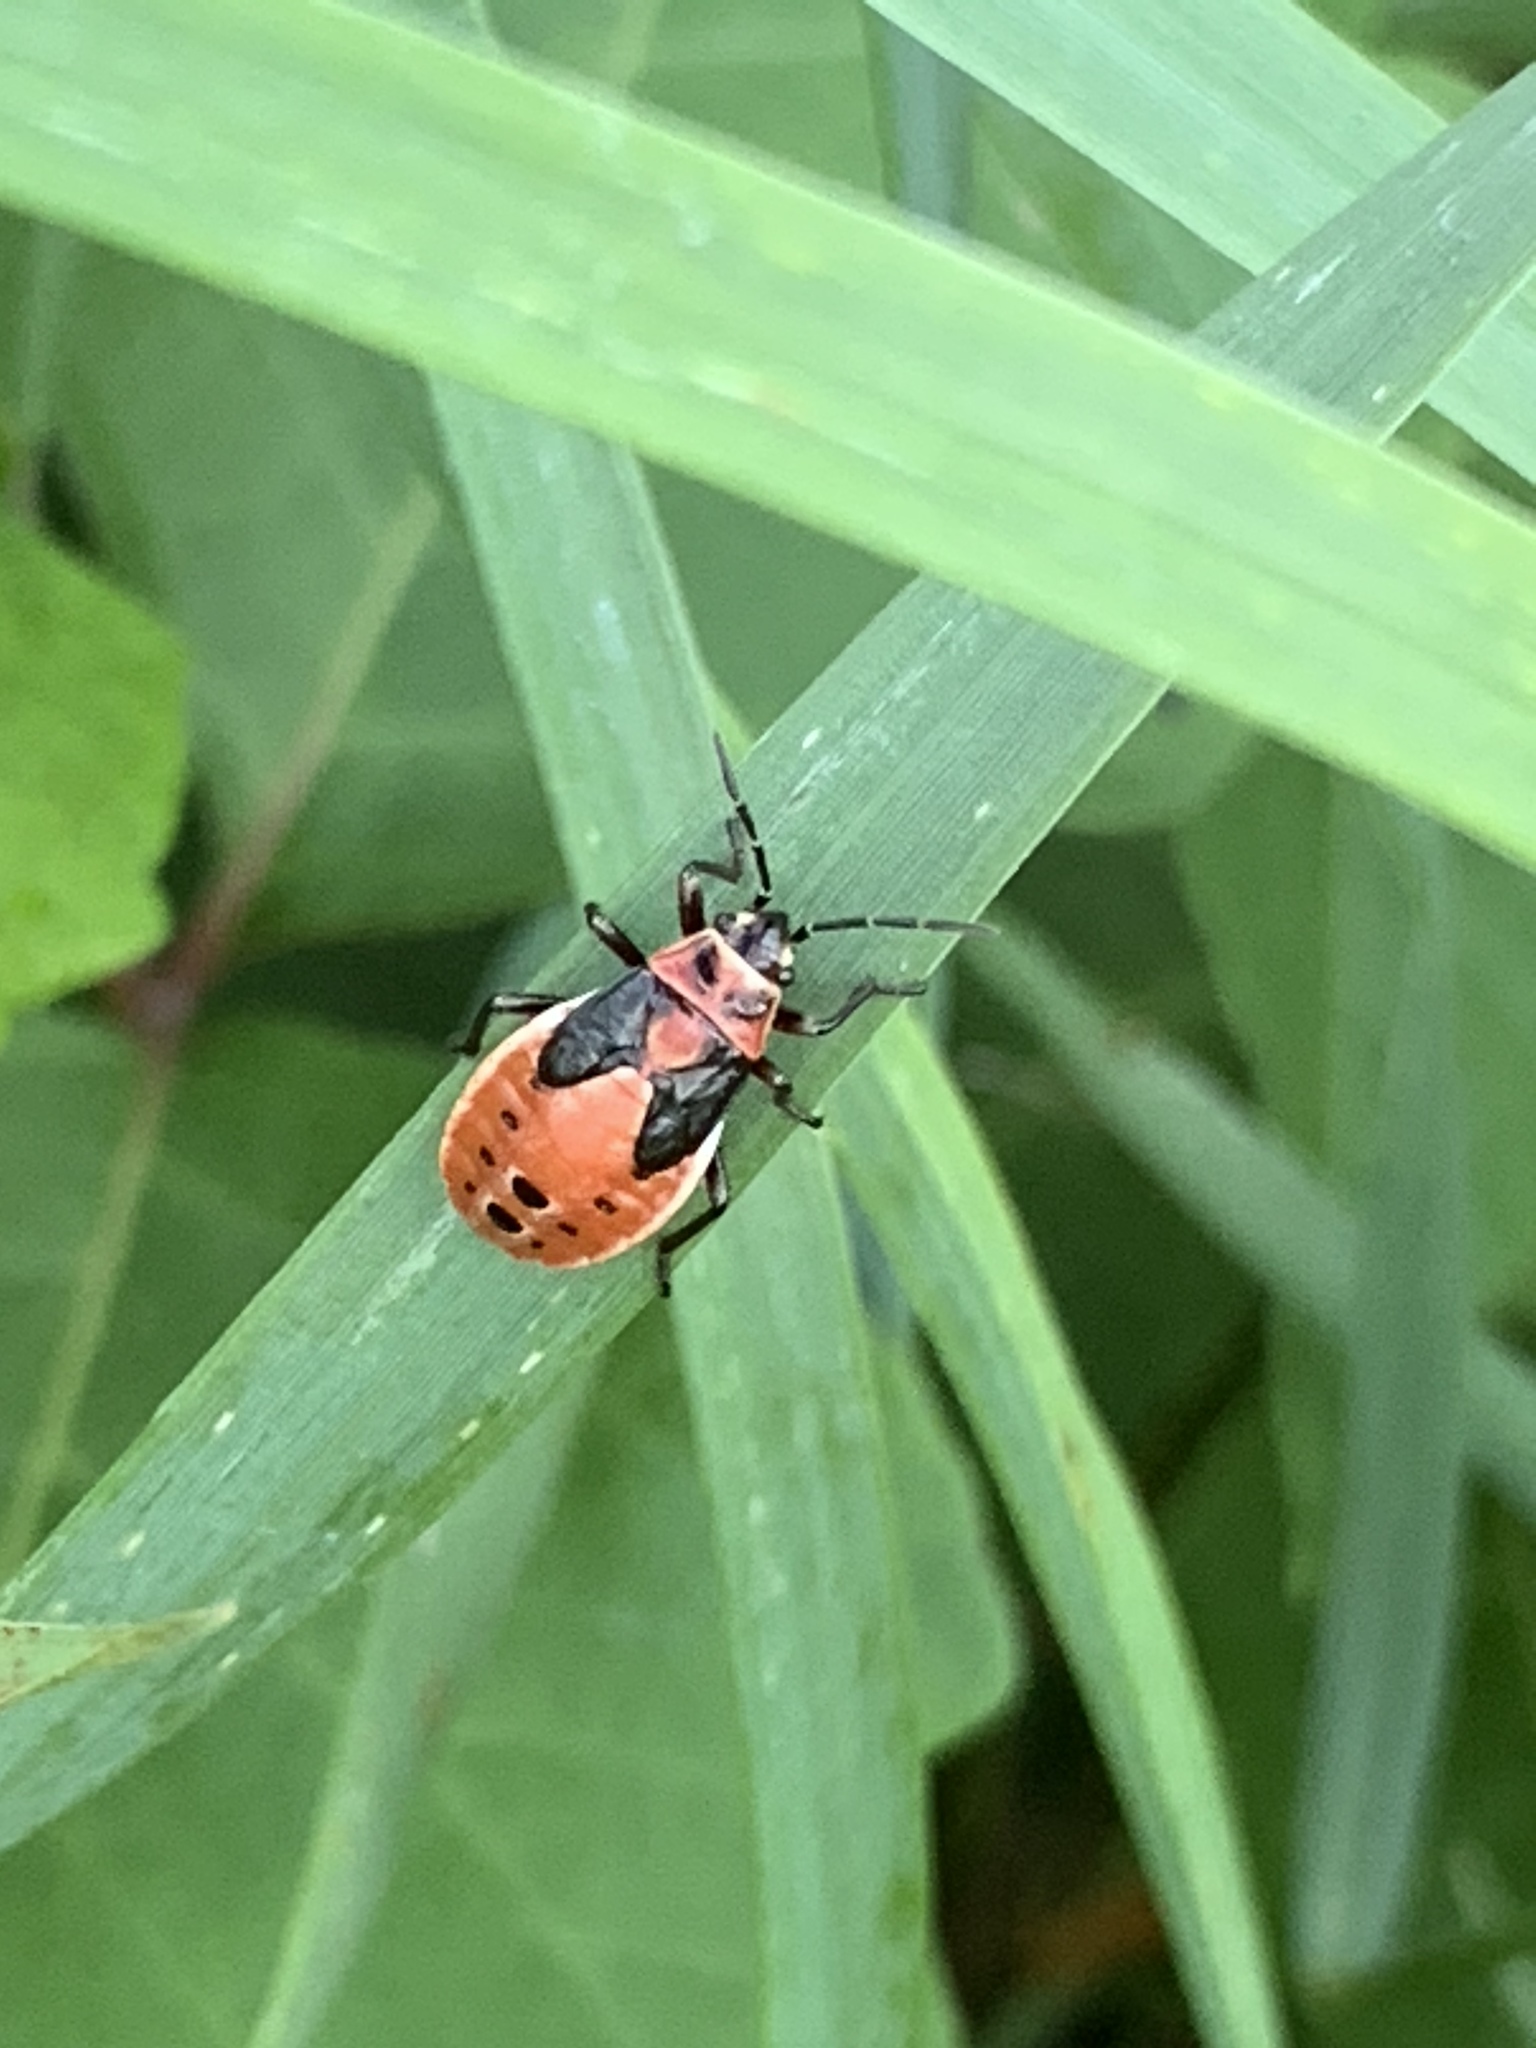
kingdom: Animalia
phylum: Arthropoda
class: Insecta
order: Hemiptera
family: Lygaeidae
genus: Lygaeus
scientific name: Lygaeus kalmii
